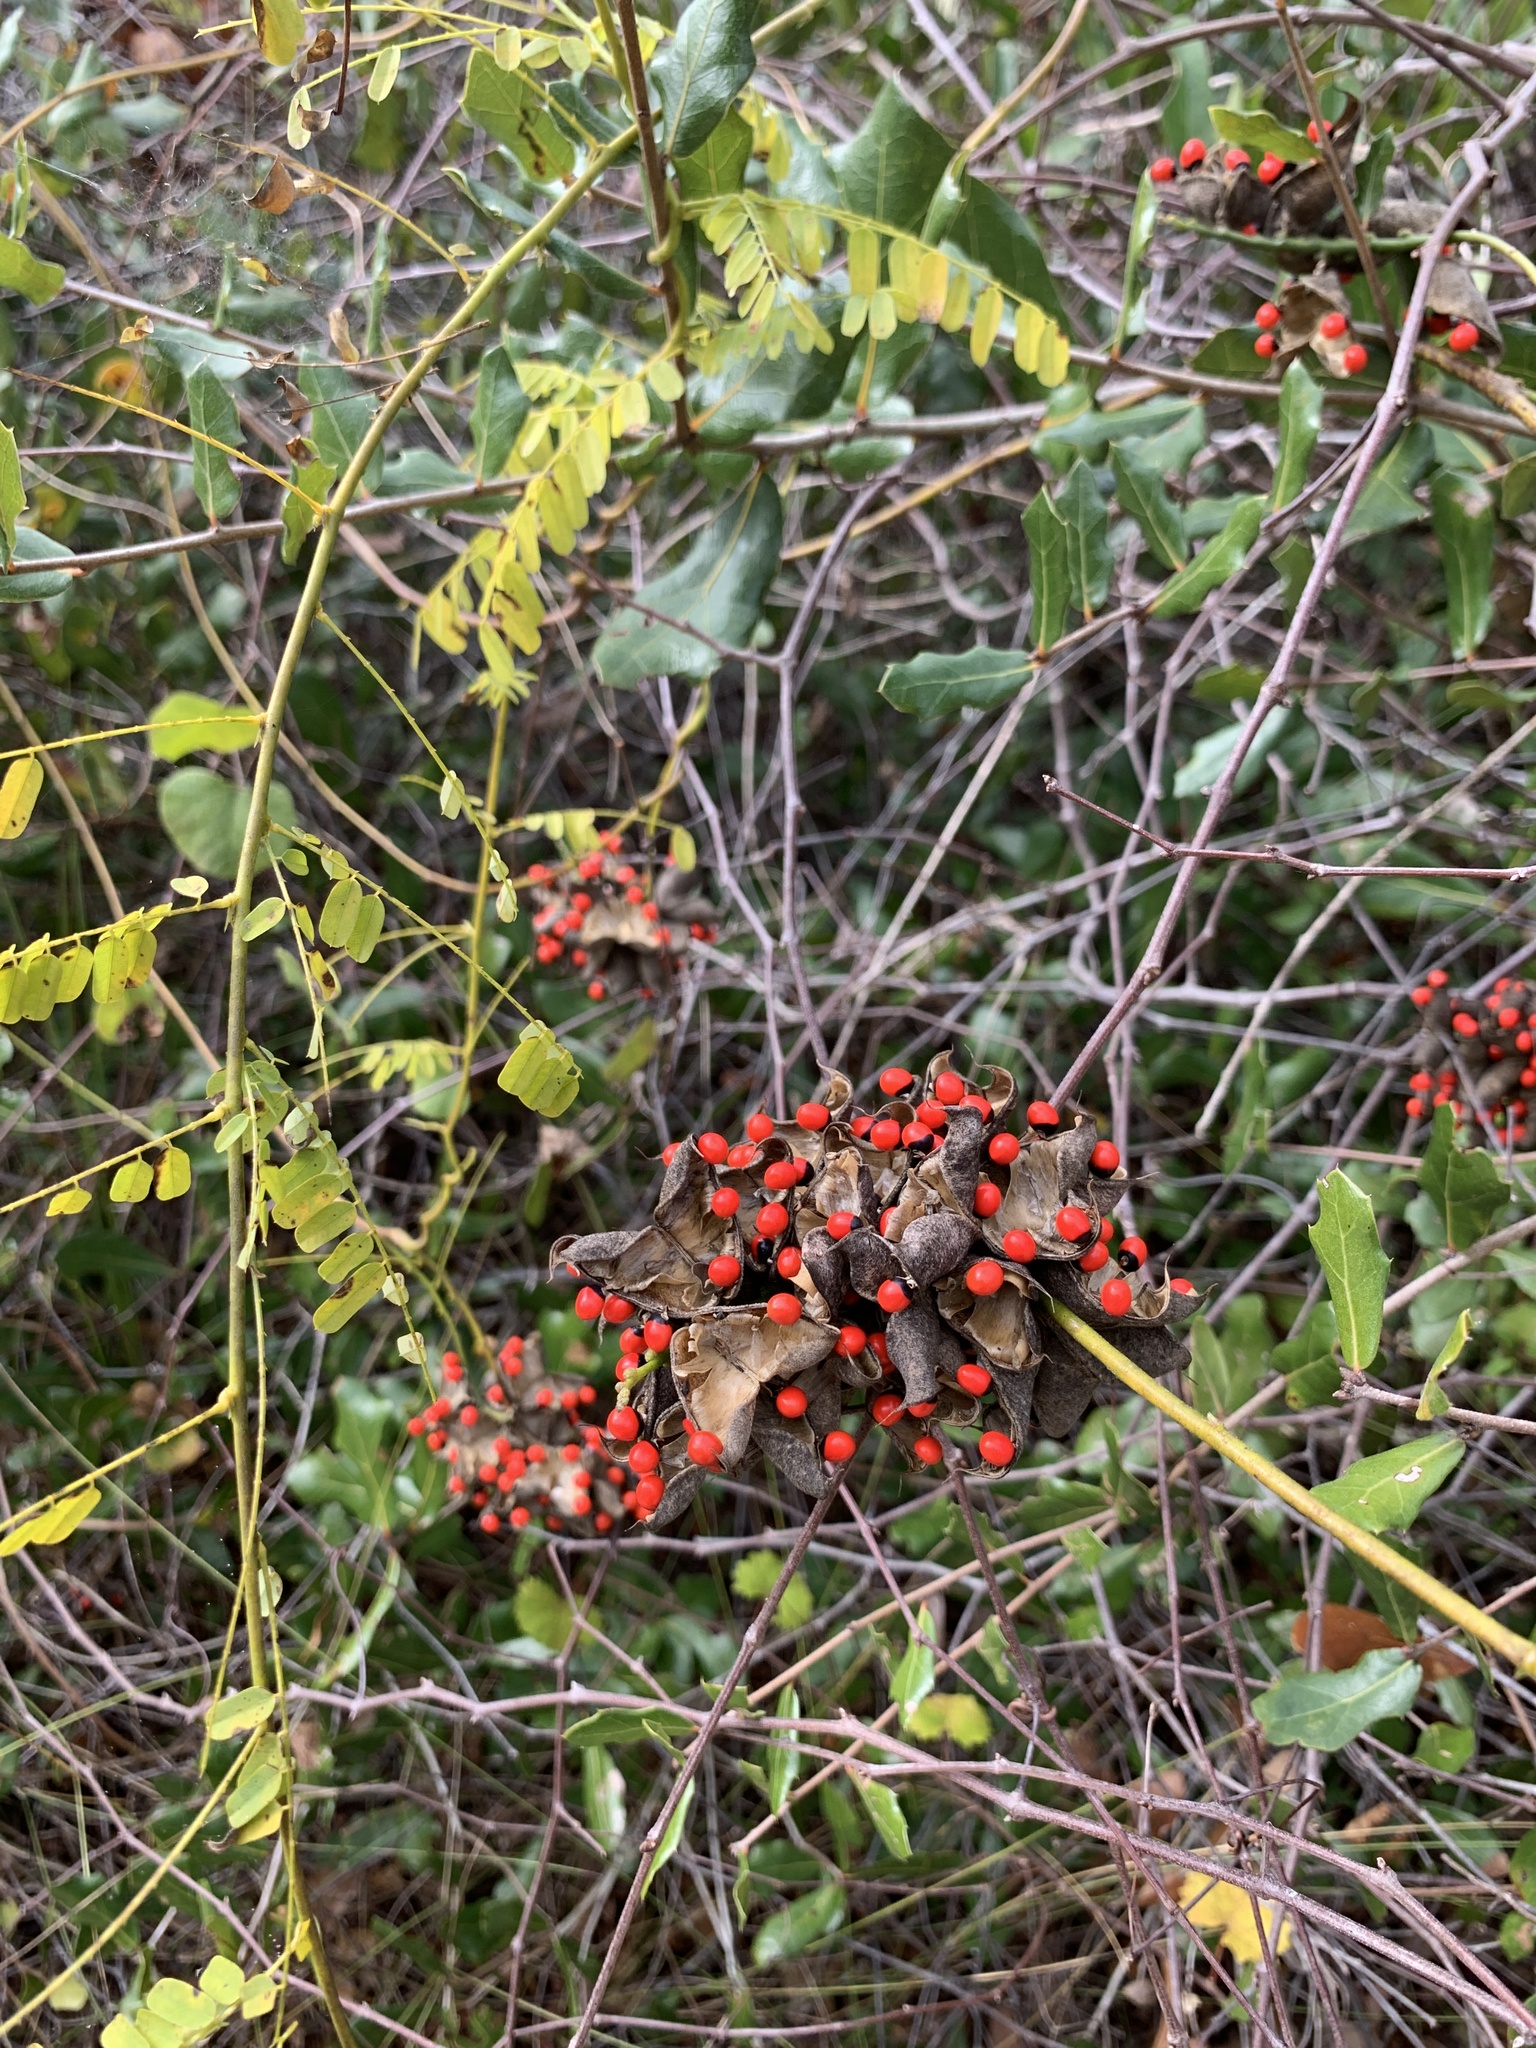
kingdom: Plantae
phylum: Tracheophyta
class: Magnoliopsida
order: Fabales
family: Fabaceae
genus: Abrus
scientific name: Abrus precatorius
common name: Rosarypea
